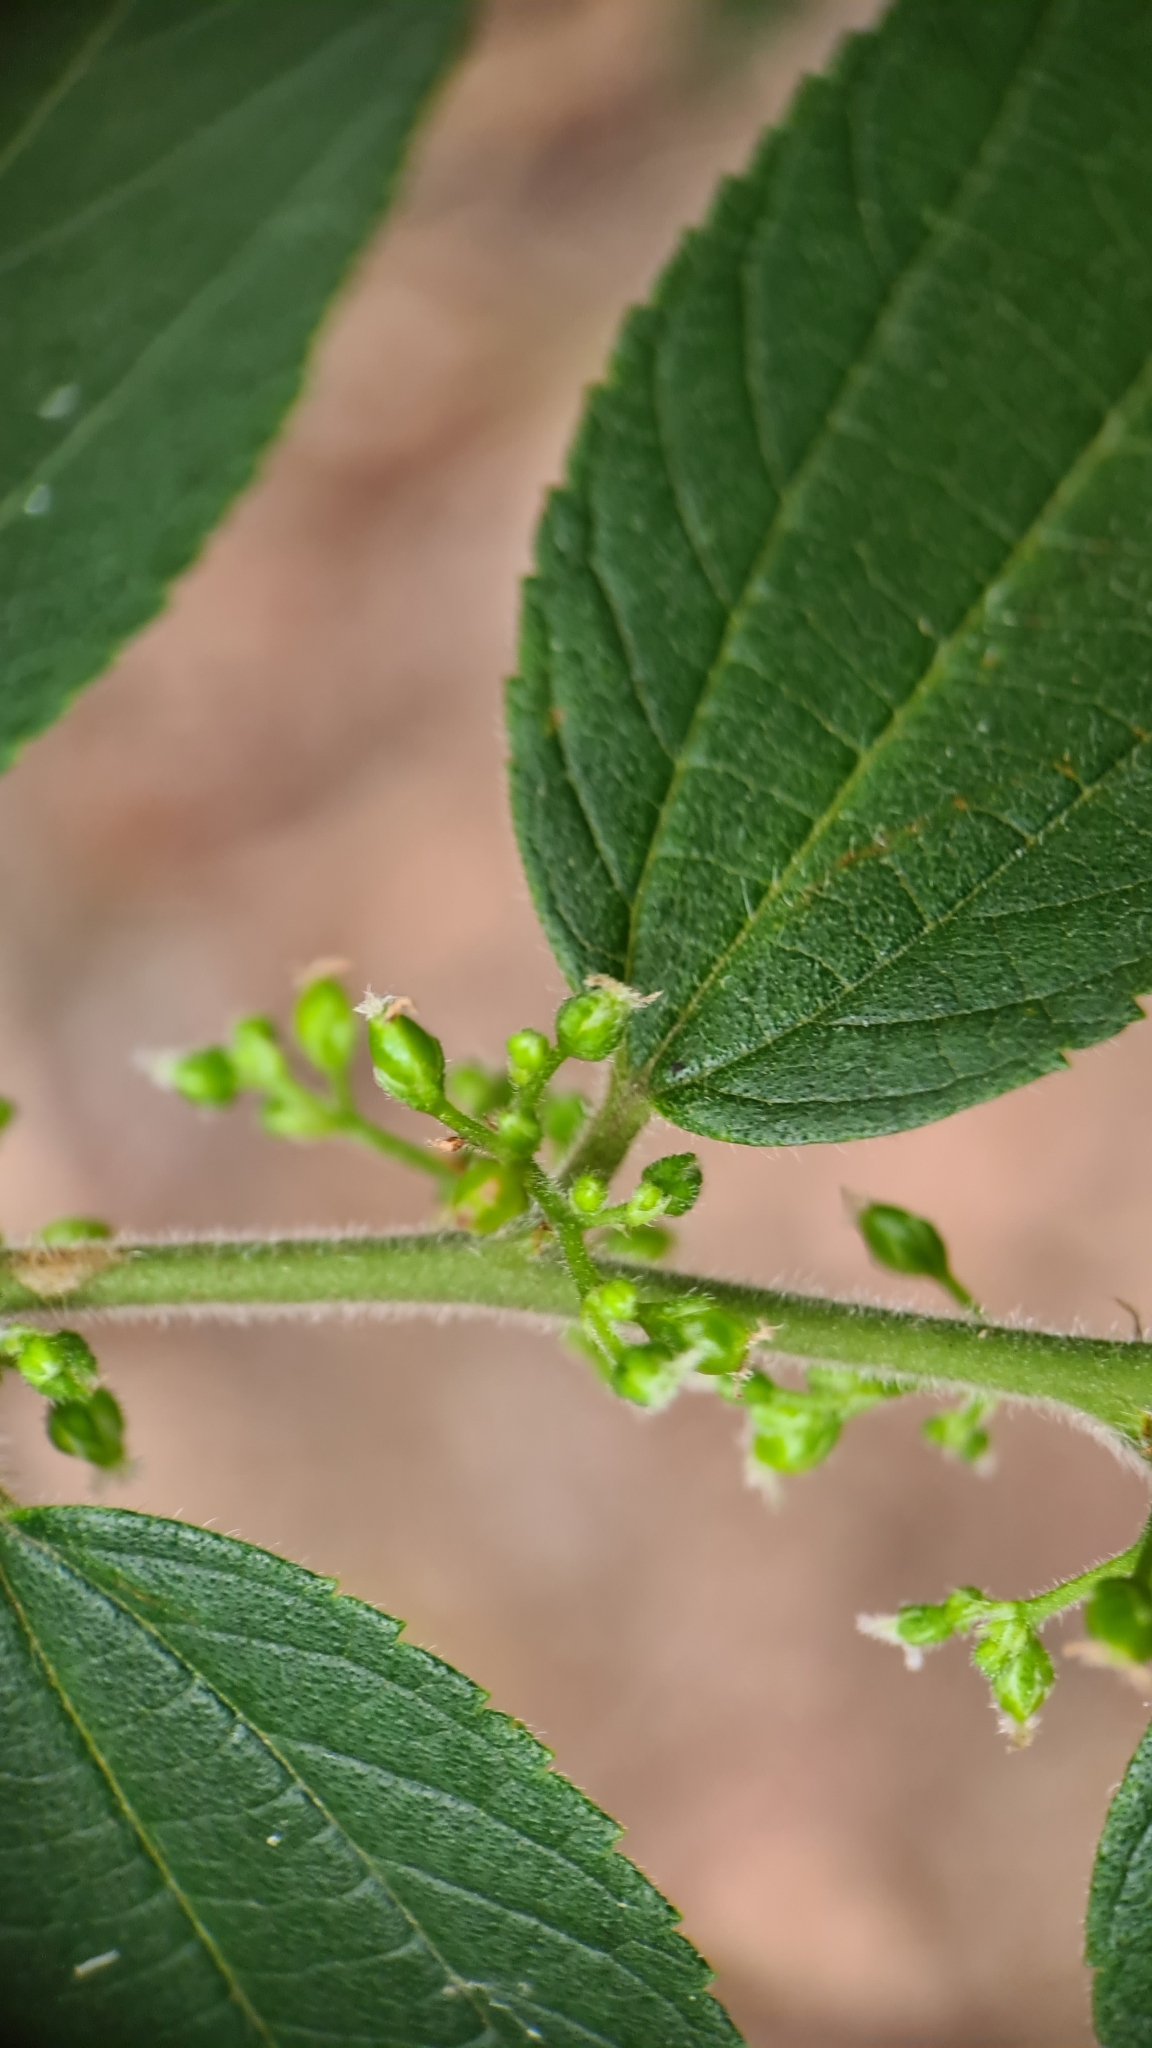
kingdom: Plantae
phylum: Tracheophyta
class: Magnoliopsida
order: Rosales
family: Cannabaceae
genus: Trema
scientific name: Trema tomentosum
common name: Peach-leaf-poisonbush
